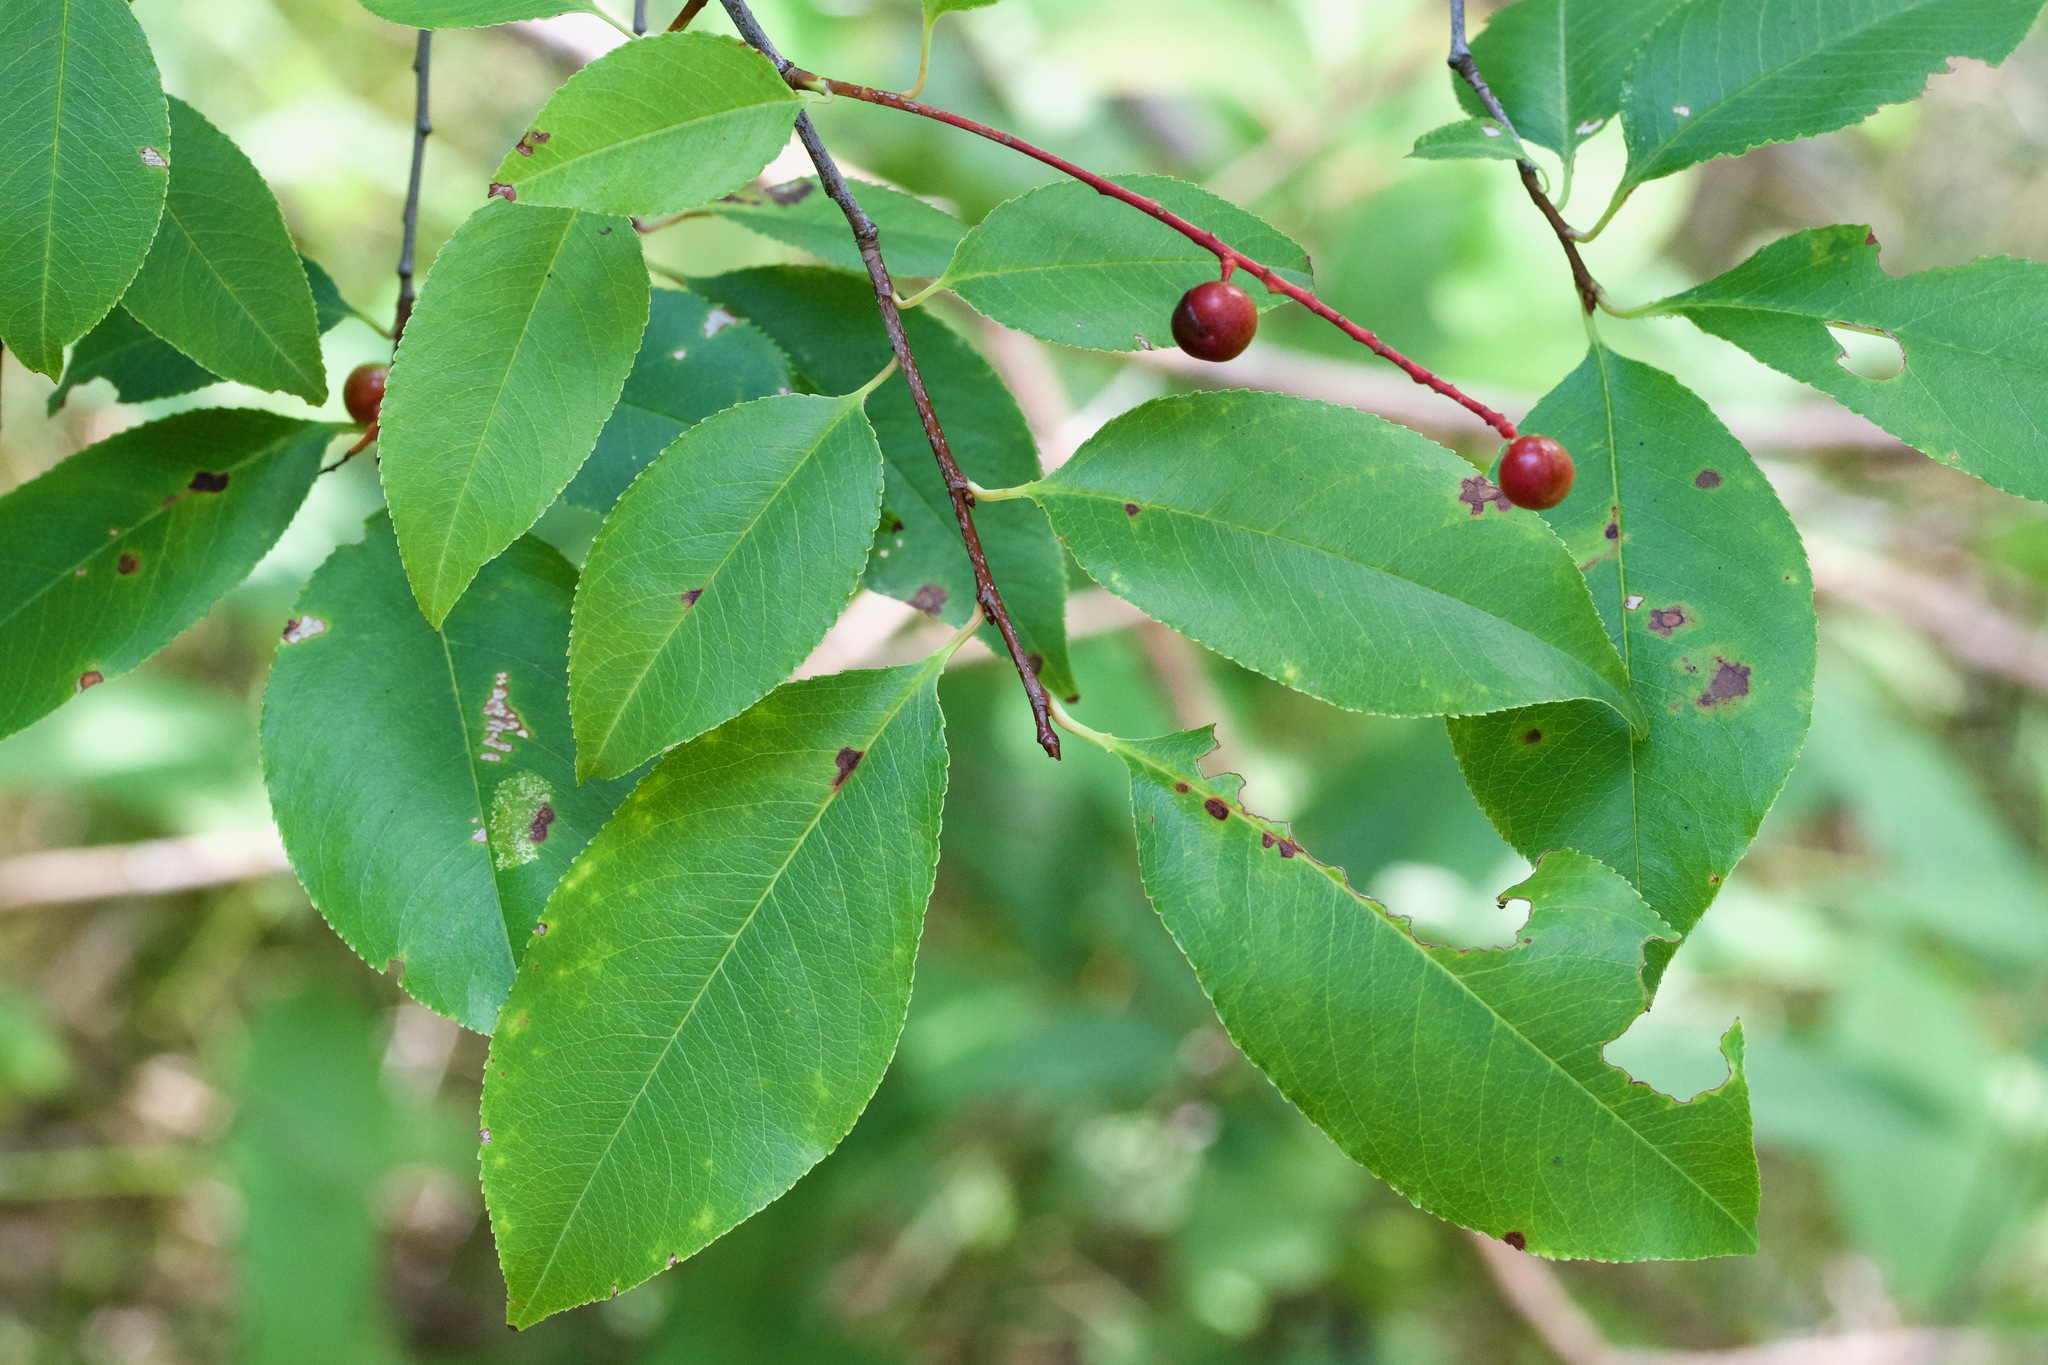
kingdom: Plantae
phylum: Tracheophyta
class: Magnoliopsida
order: Rosales
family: Rosaceae
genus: Prunus
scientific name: Prunus serotina
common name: Black cherry
